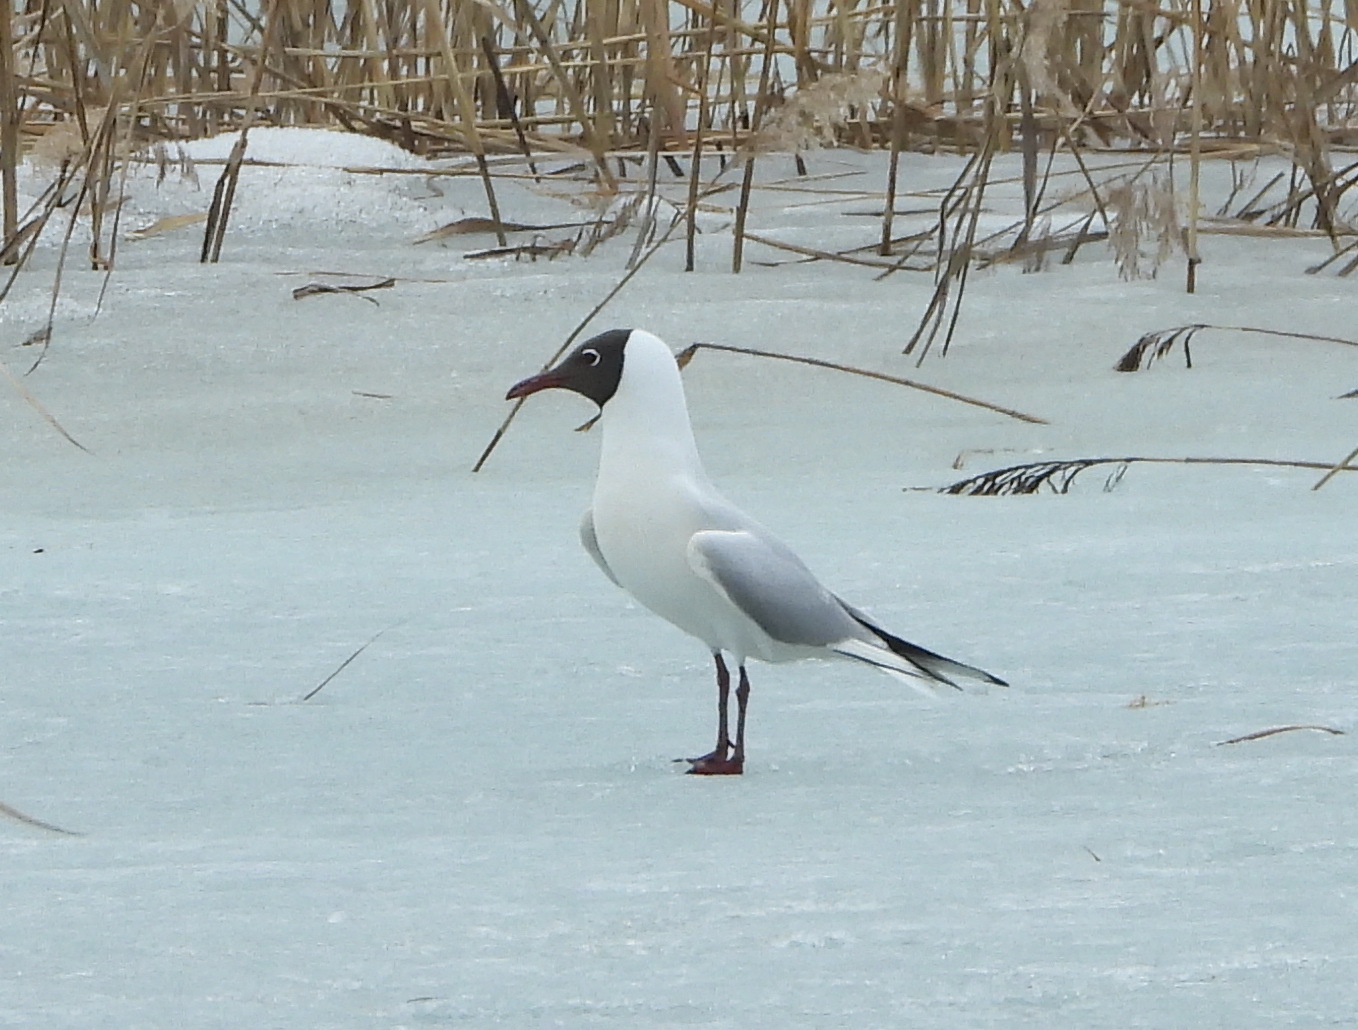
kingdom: Animalia
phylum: Chordata
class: Aves
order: Charadriiformes
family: Laridae
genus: Chroicocephalus
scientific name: Chroicocephalus ridibundus
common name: Black-headed gull
